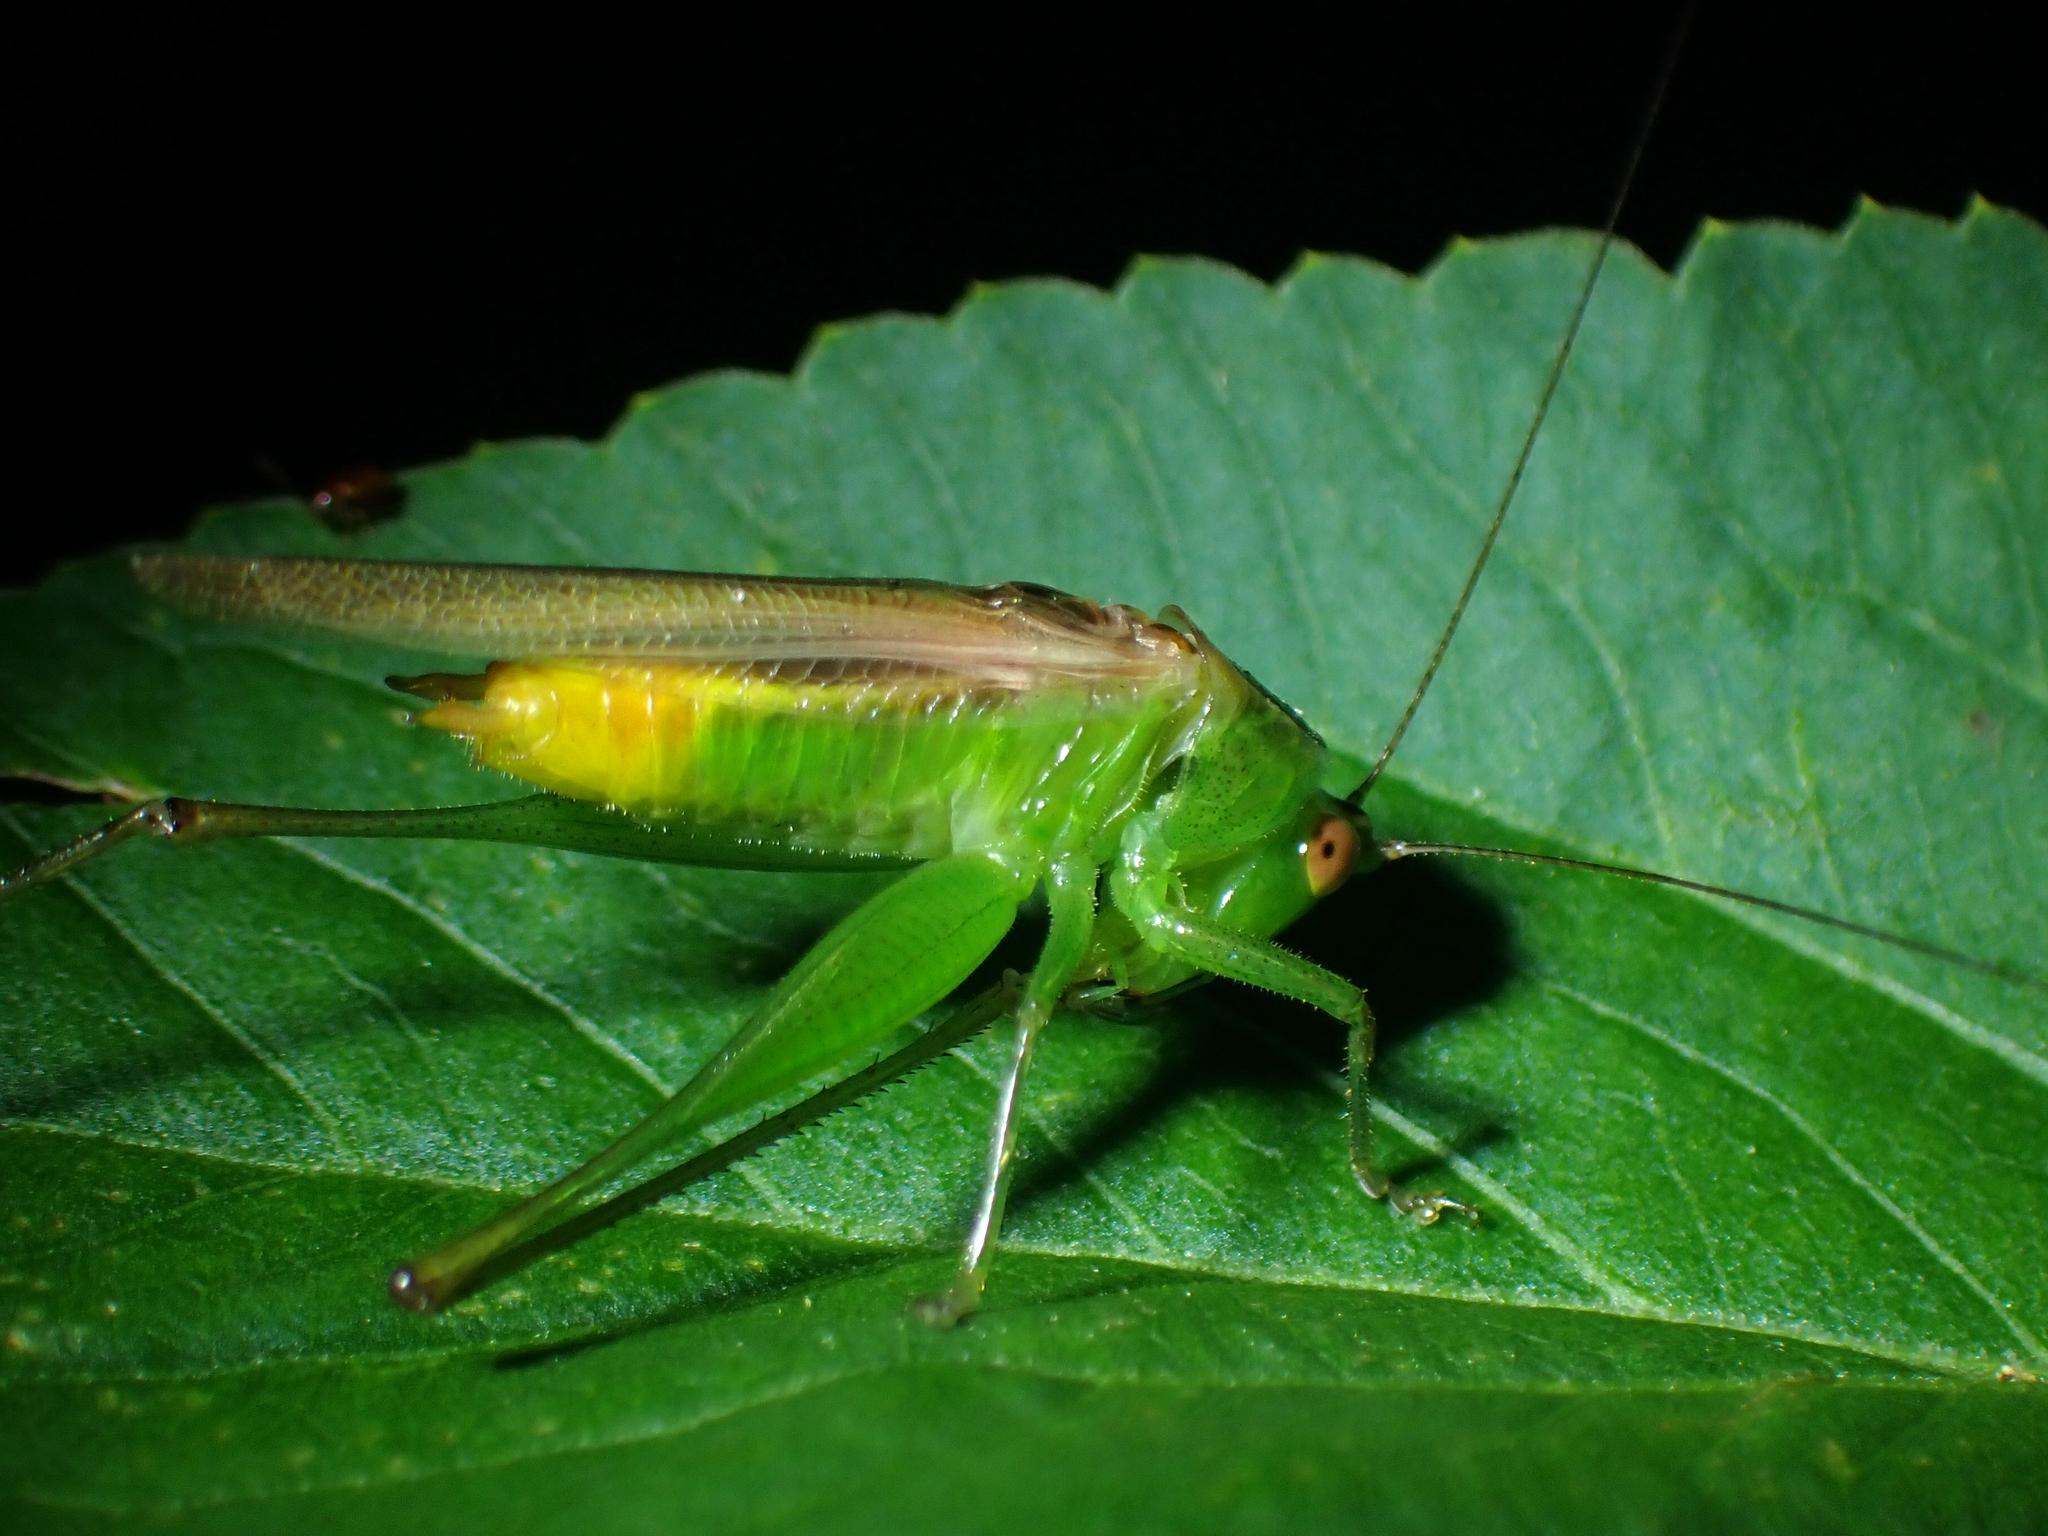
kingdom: Animalia
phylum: Arthropoda
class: Insecta
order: Orthoptera
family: Tettigoniidae
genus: Conocephalus
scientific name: Conocephalus cinereus
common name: Caribbean meadow katydid
